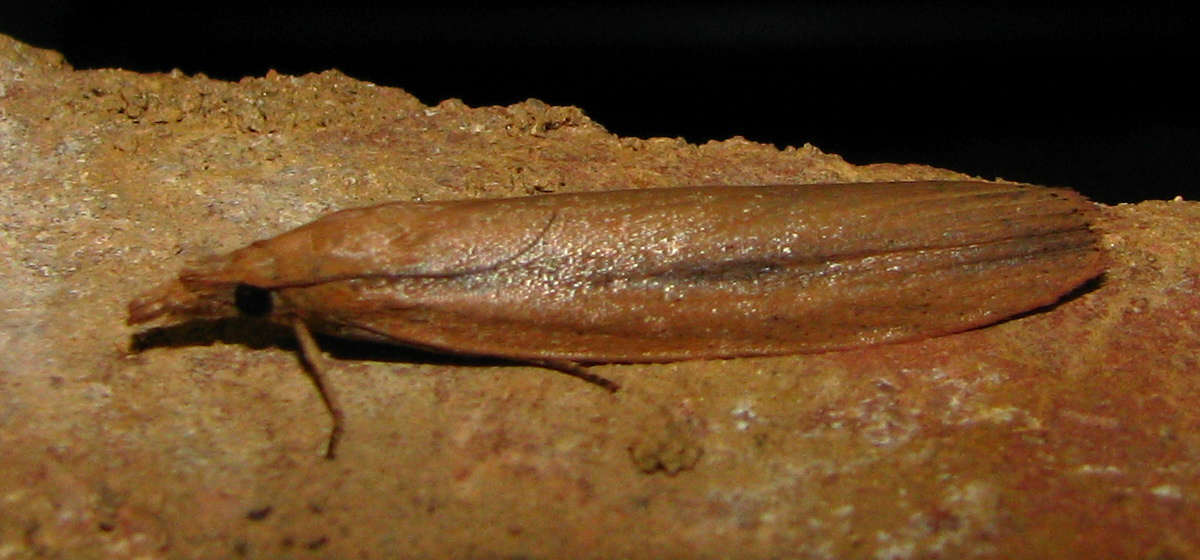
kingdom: Animalia
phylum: Arthropoda
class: Insecta
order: Lepidoptera
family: Pyralidae
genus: Meyriccia
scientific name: Meyriccia latro
